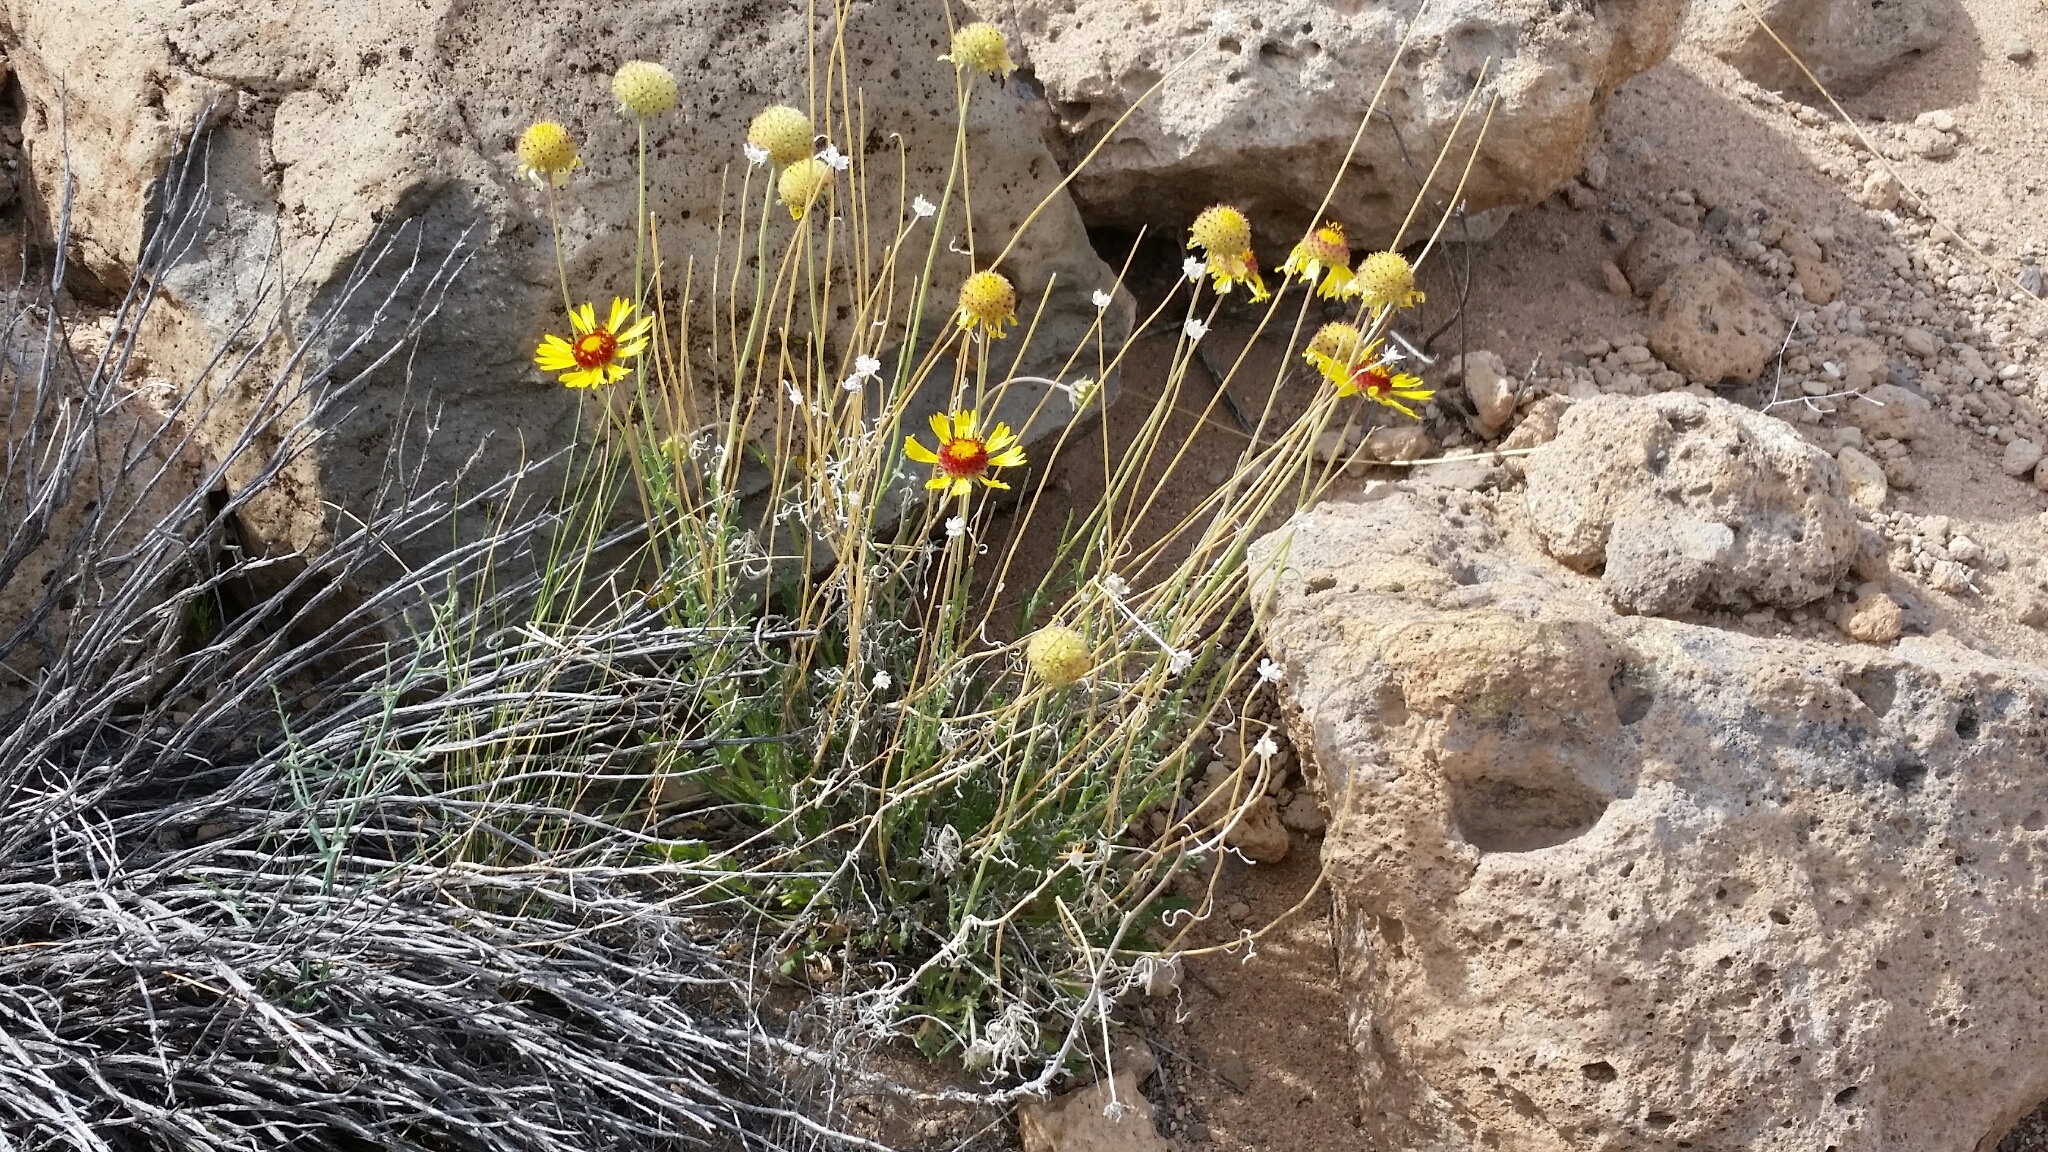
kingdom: Plantae
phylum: Tracheophyta
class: Magnoliopsida
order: Asterales
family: Asteraceae
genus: Gaillardia
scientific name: Gaillardia pinnatifida
